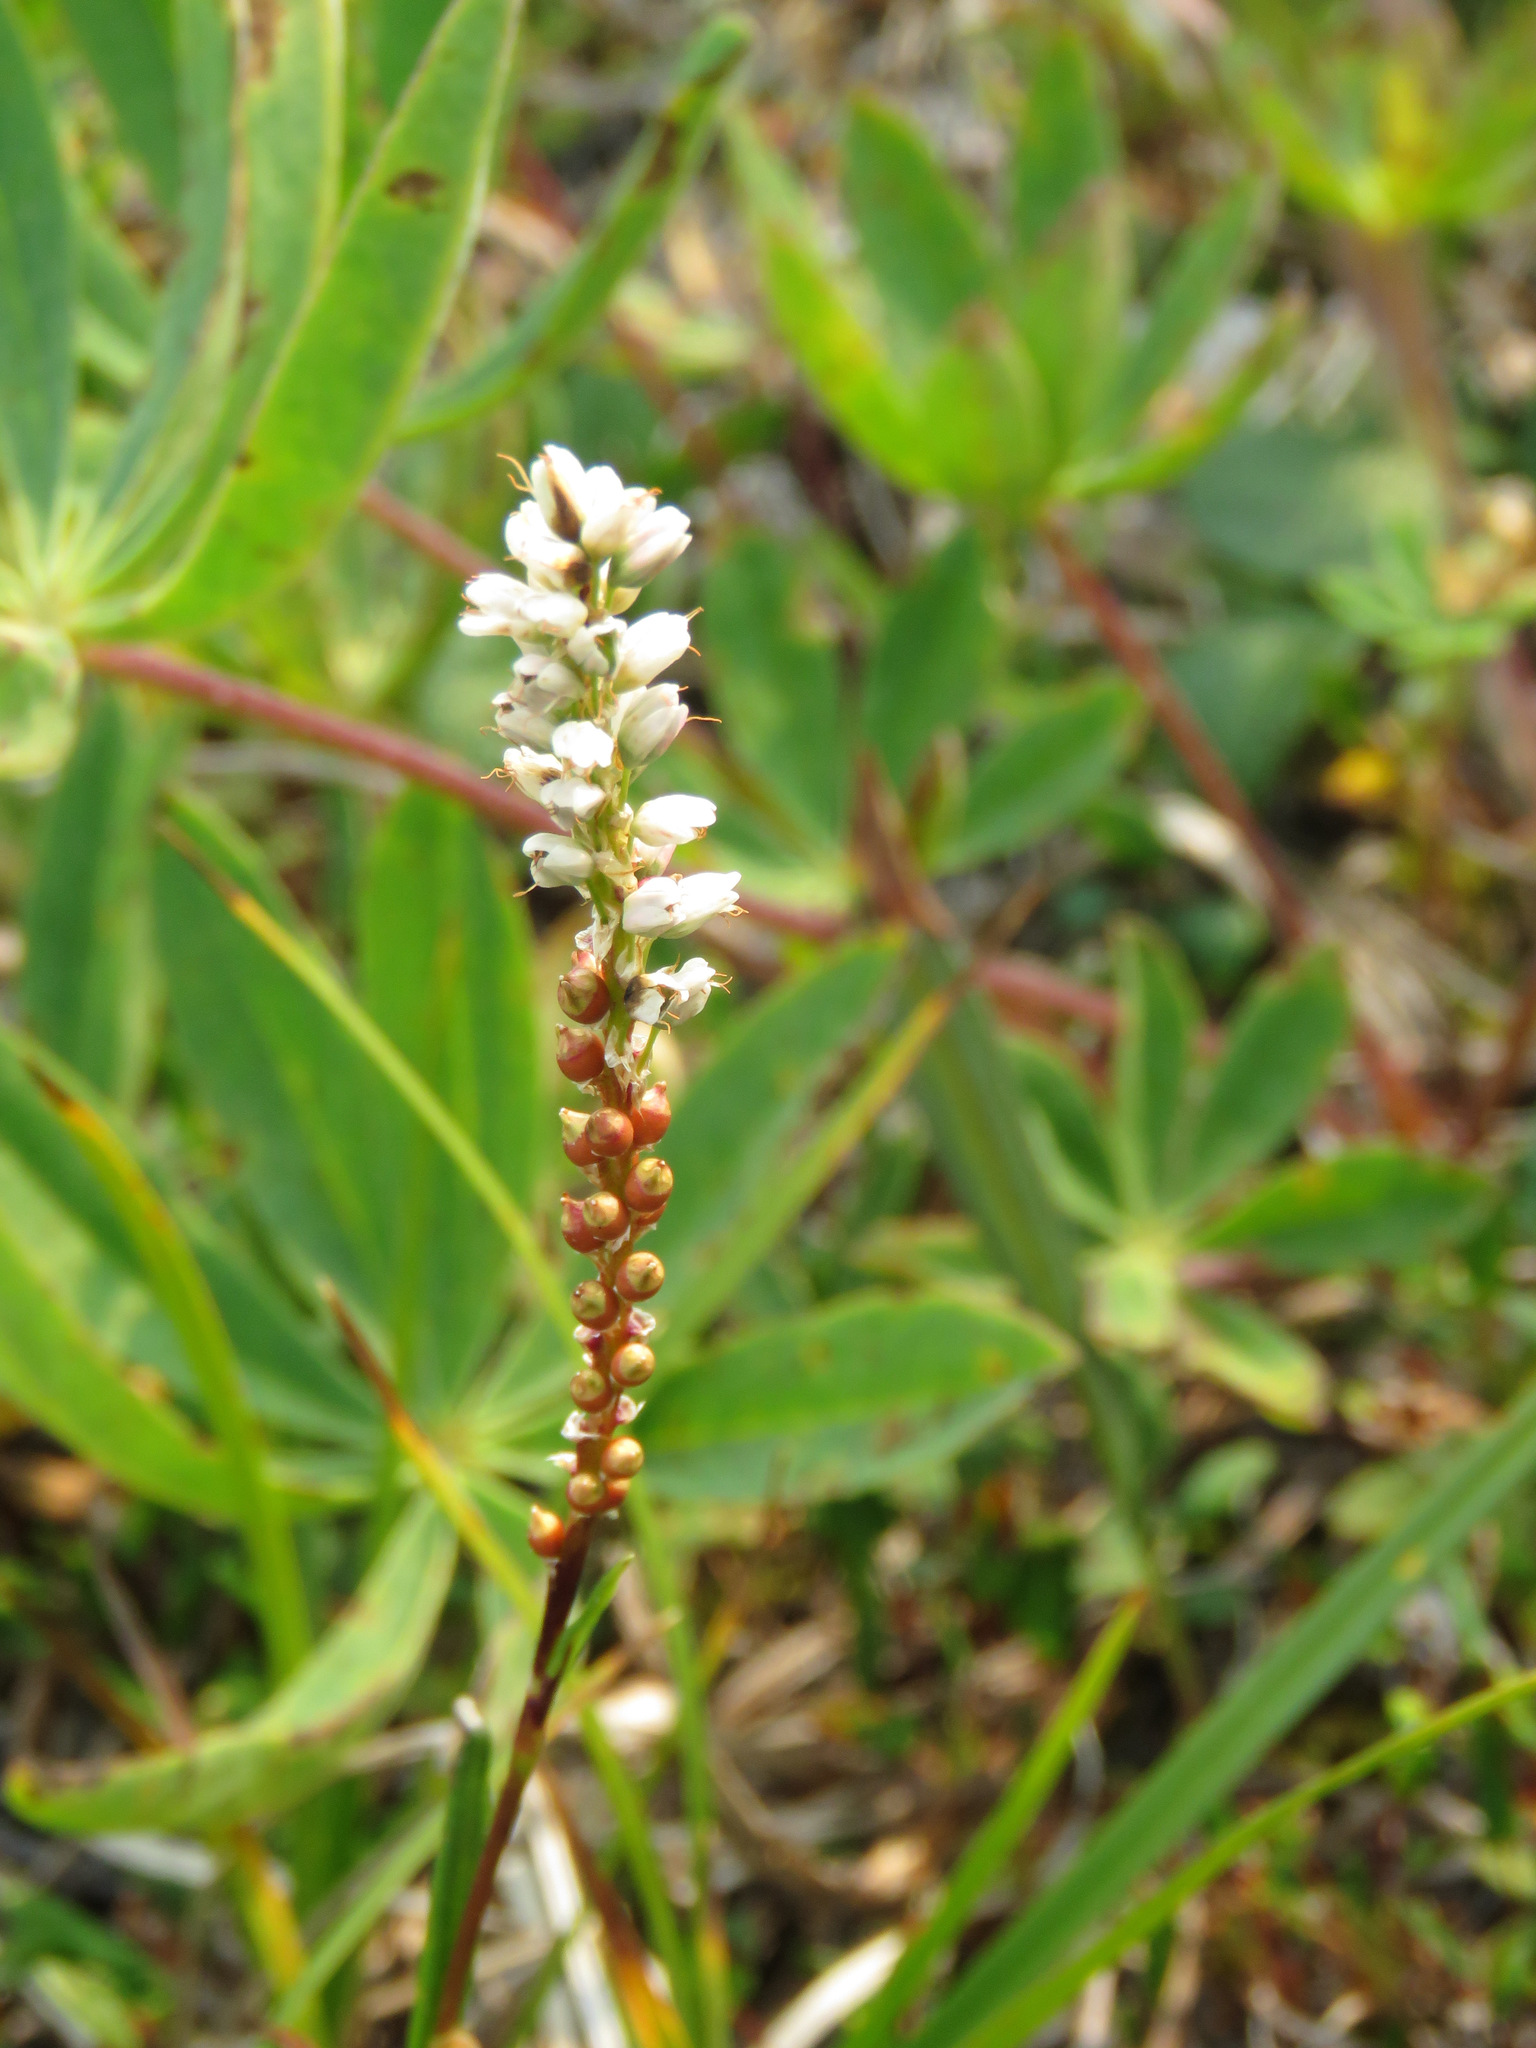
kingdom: Plantae
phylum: Tracheophyta
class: Magnoliopsida
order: Caryophyllales
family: Polygonaceae
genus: Bistorta
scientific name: Bistorta vivipara
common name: Alpine bistort
